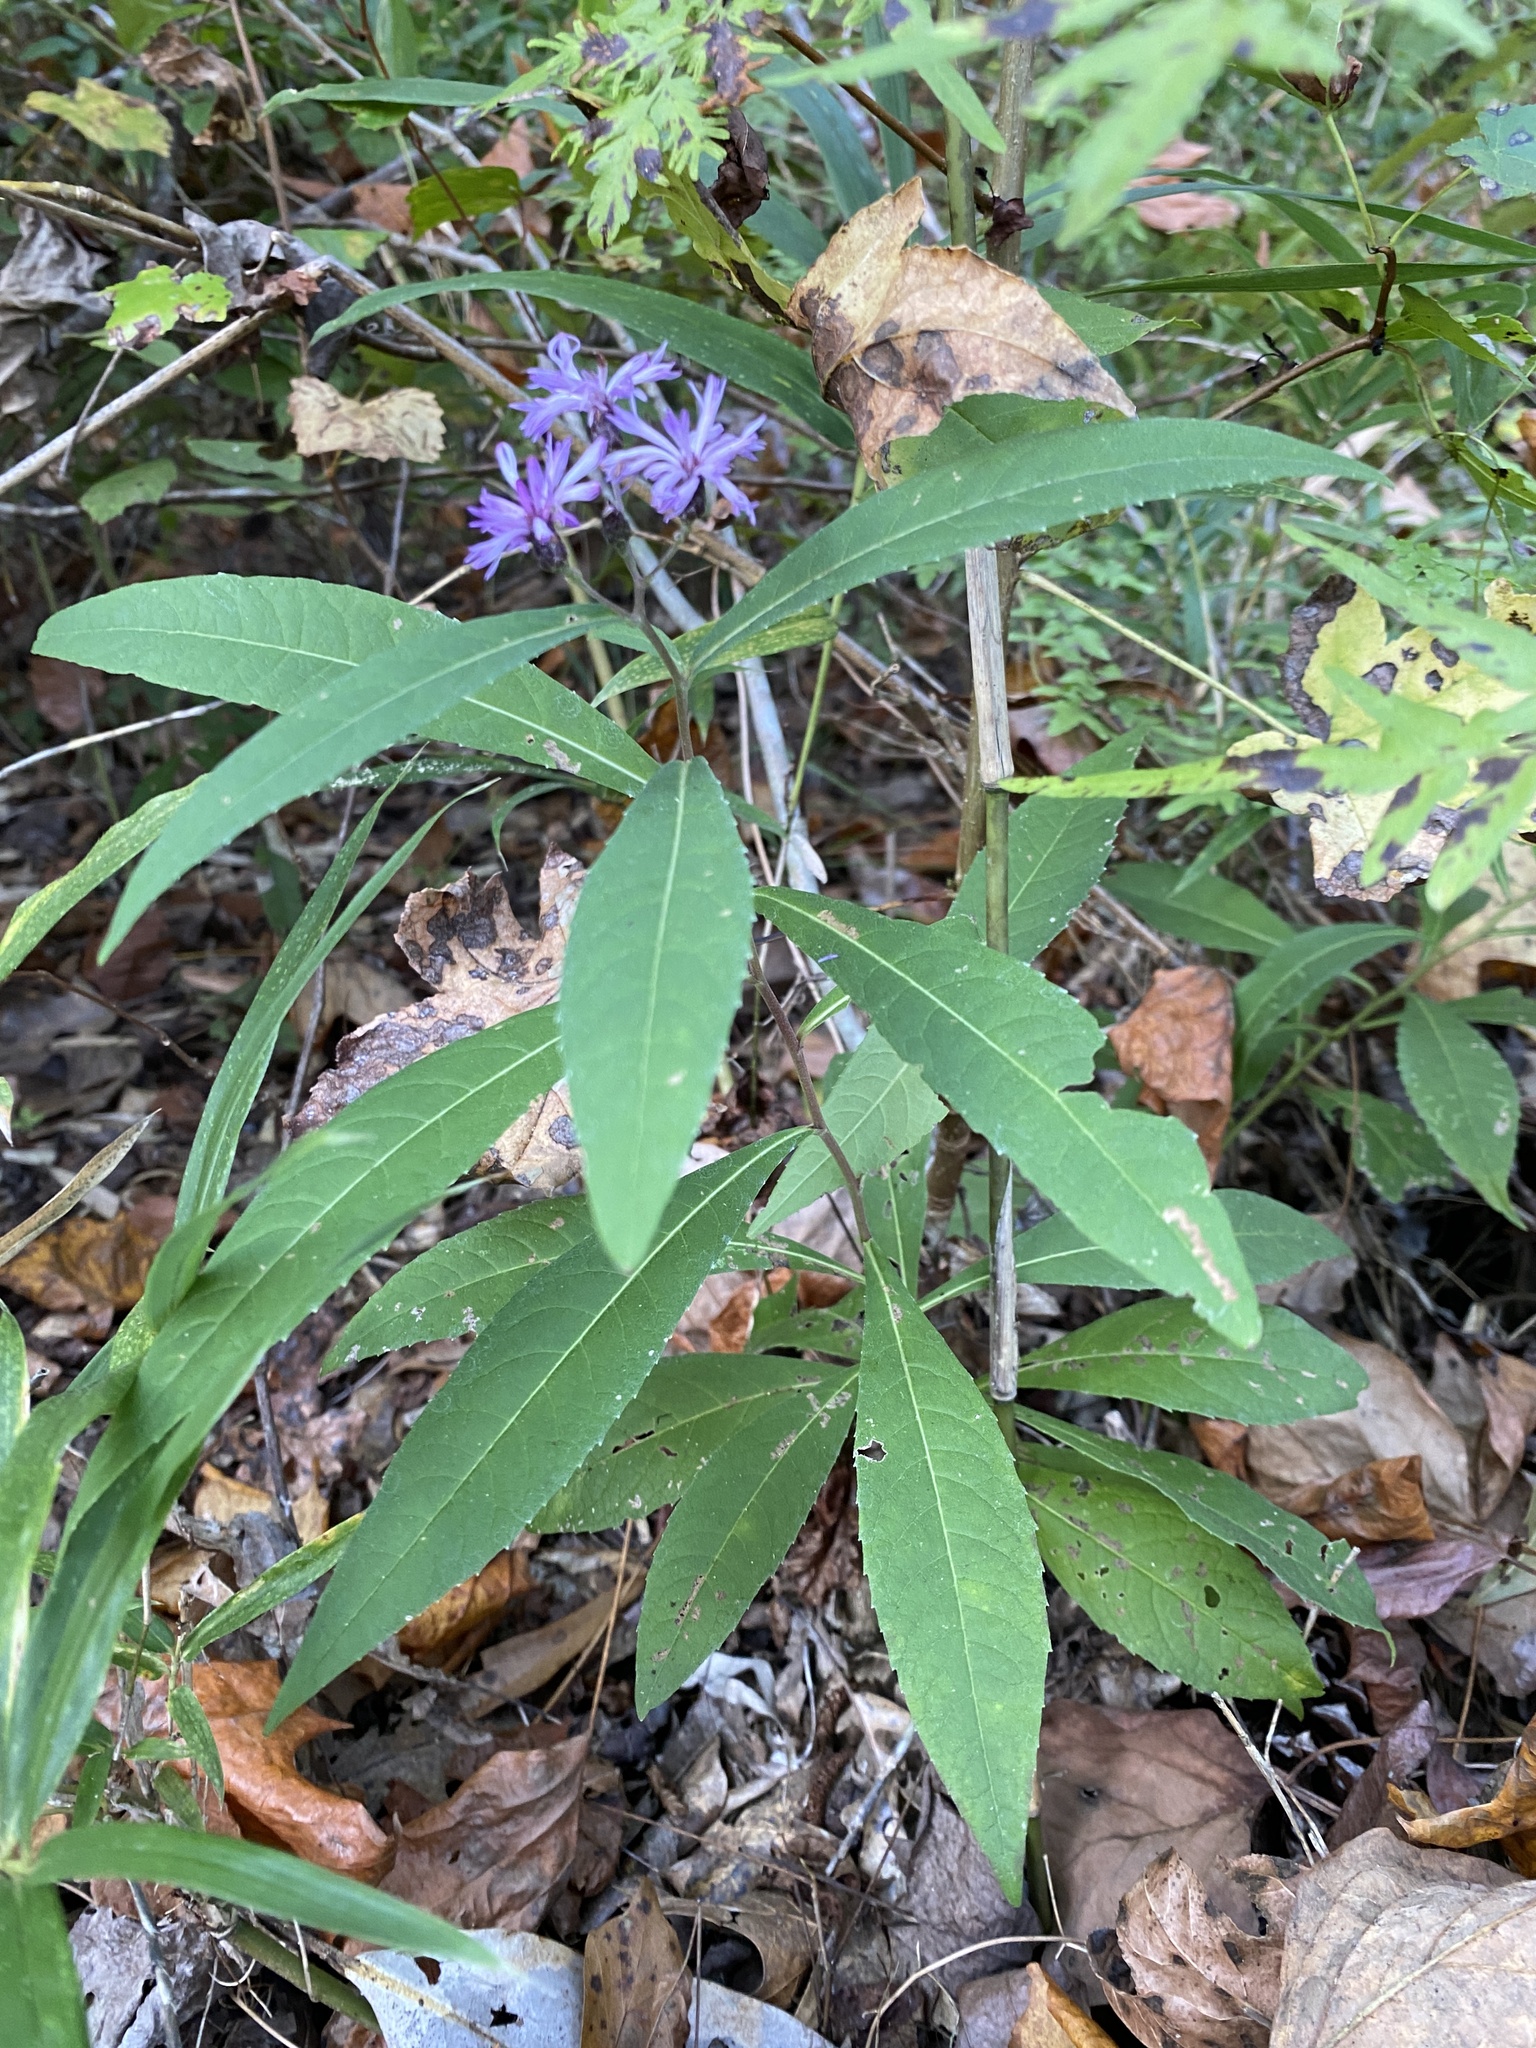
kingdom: Plantae
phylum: Tracheophyta
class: Magnoliopsida
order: Asterales
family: Asteraceae
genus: Vernonia
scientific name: Vernonia gigantea
